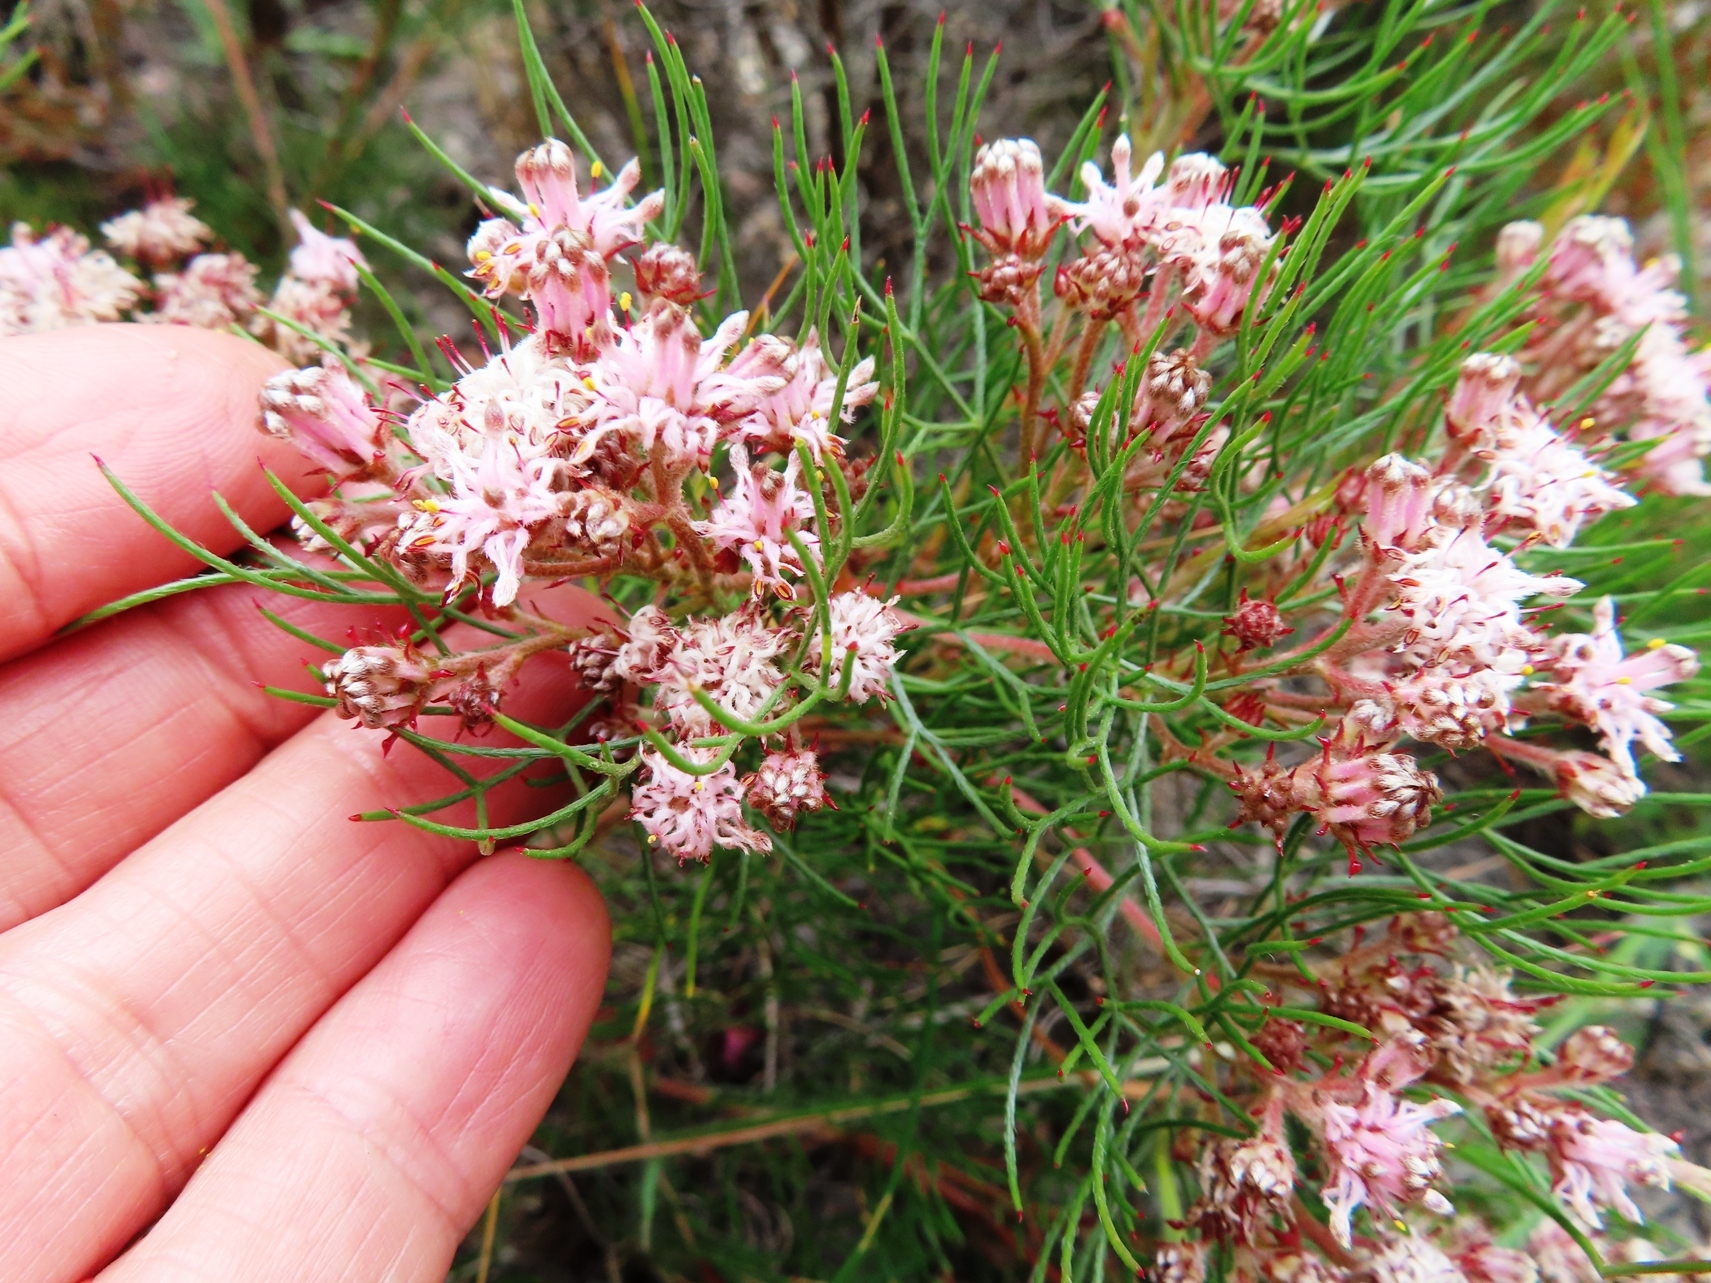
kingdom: Plantae
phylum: Tracheophyta
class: Magnoliopsida
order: Proteales
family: Proteaceae
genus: Serruria
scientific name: Serruria fasciflora
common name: Common pin spiderhead
